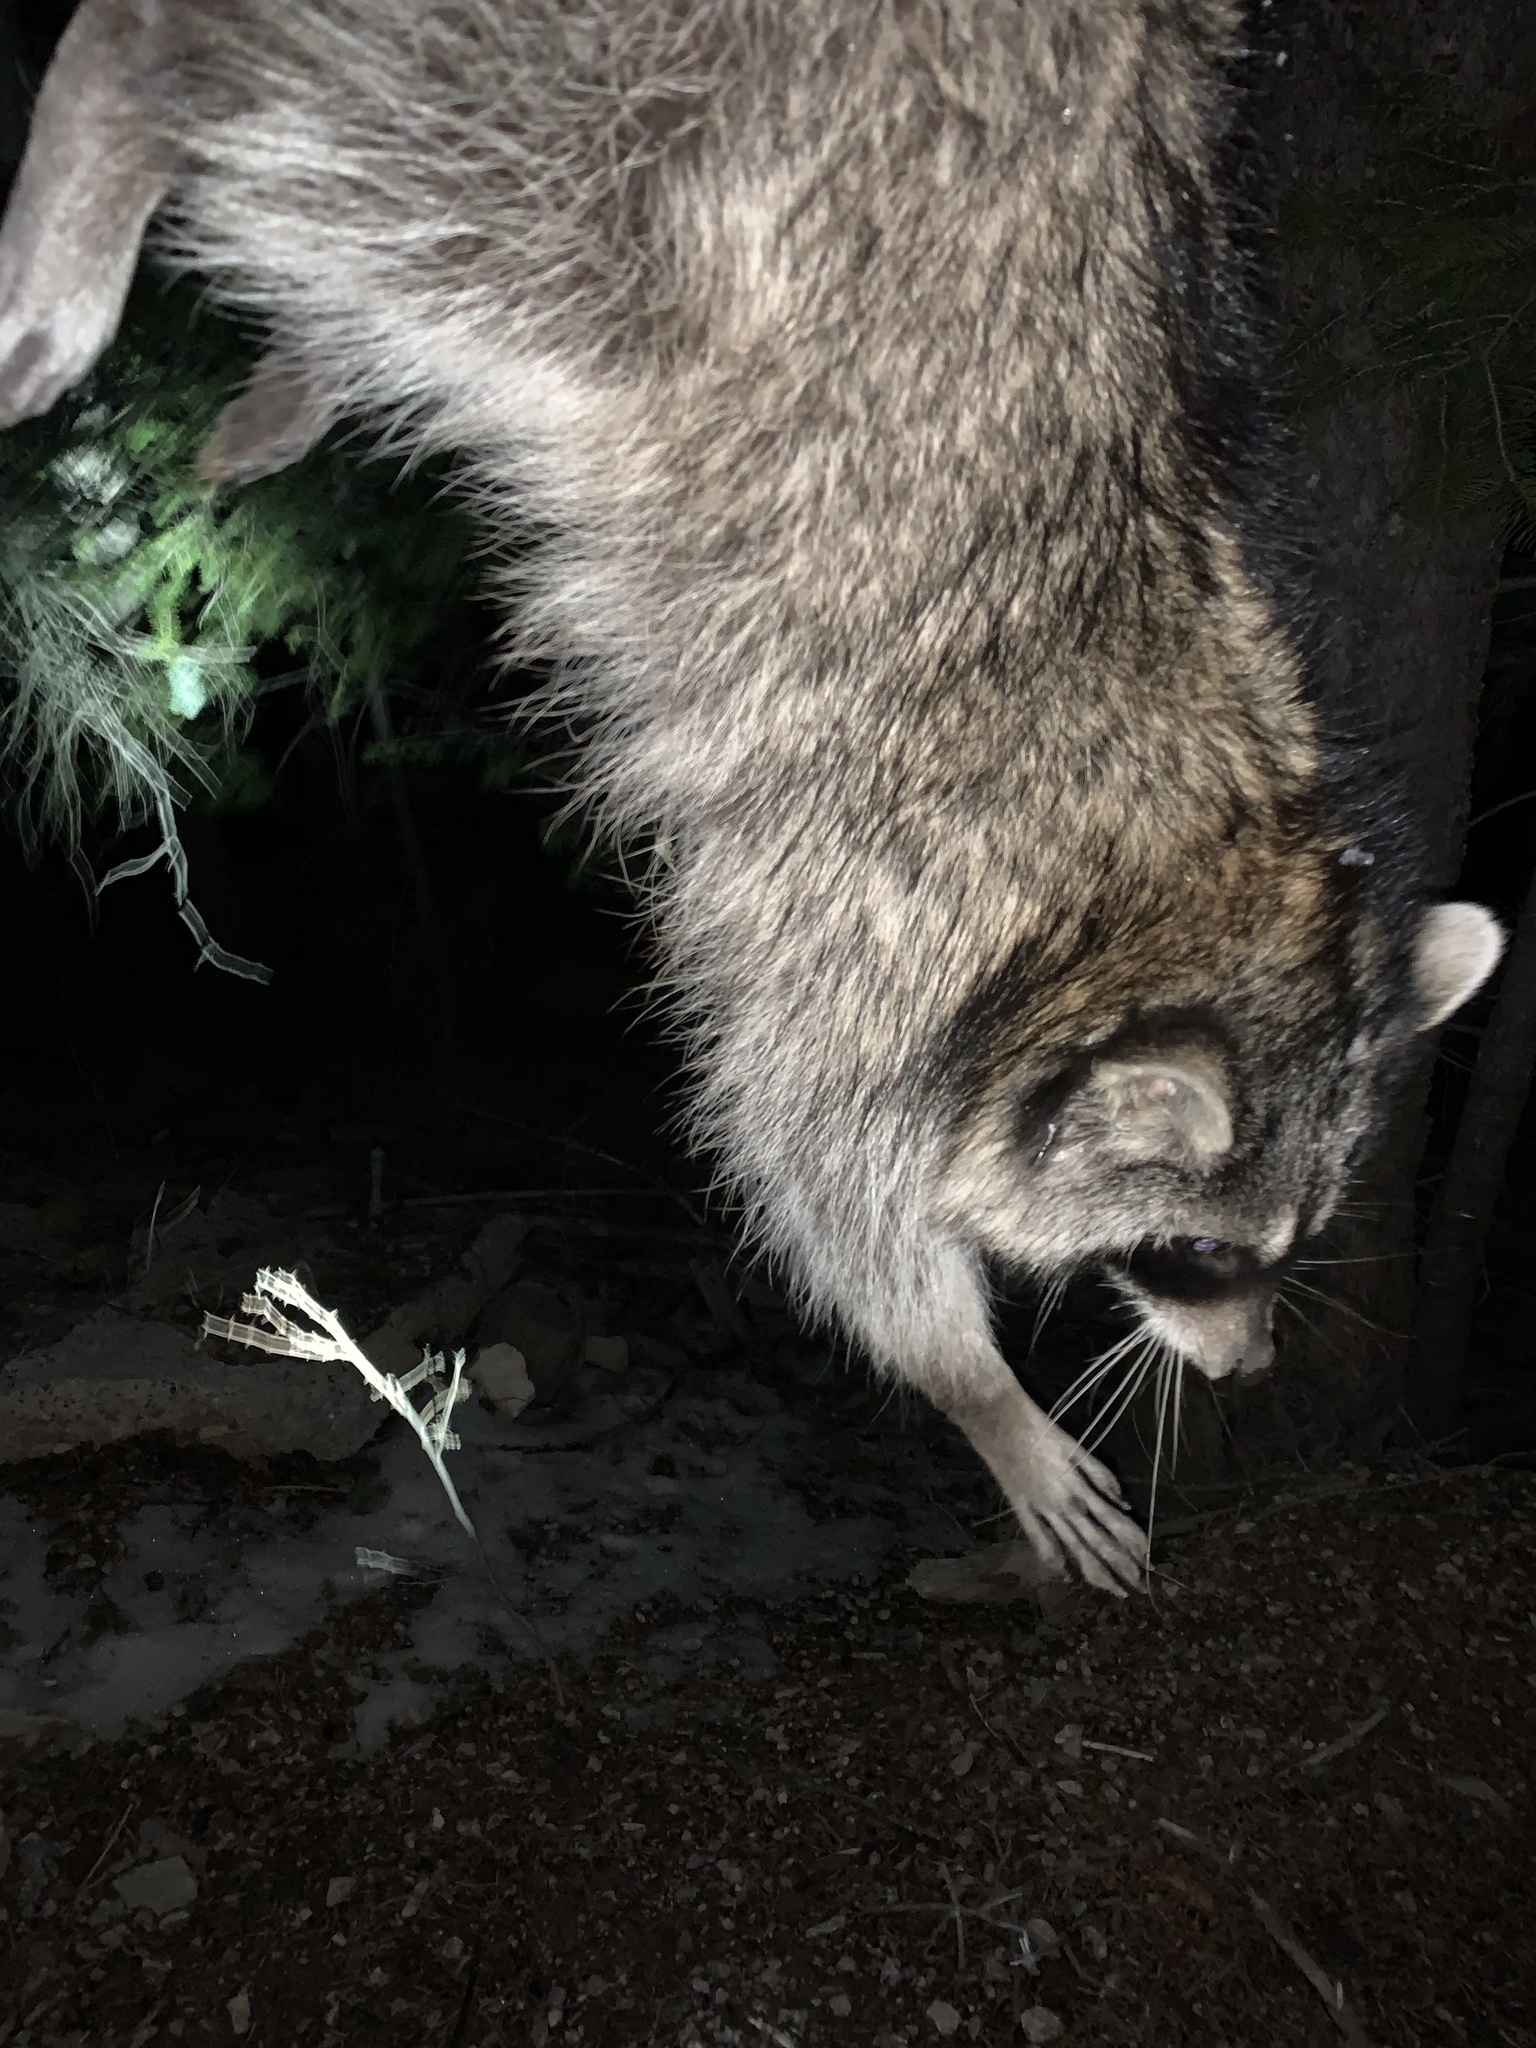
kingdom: Animalia
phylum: Chordata
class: Mammalia
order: Carnivora
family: Procyonidae
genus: Procyon
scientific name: Procyon lotor
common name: Raccoon
